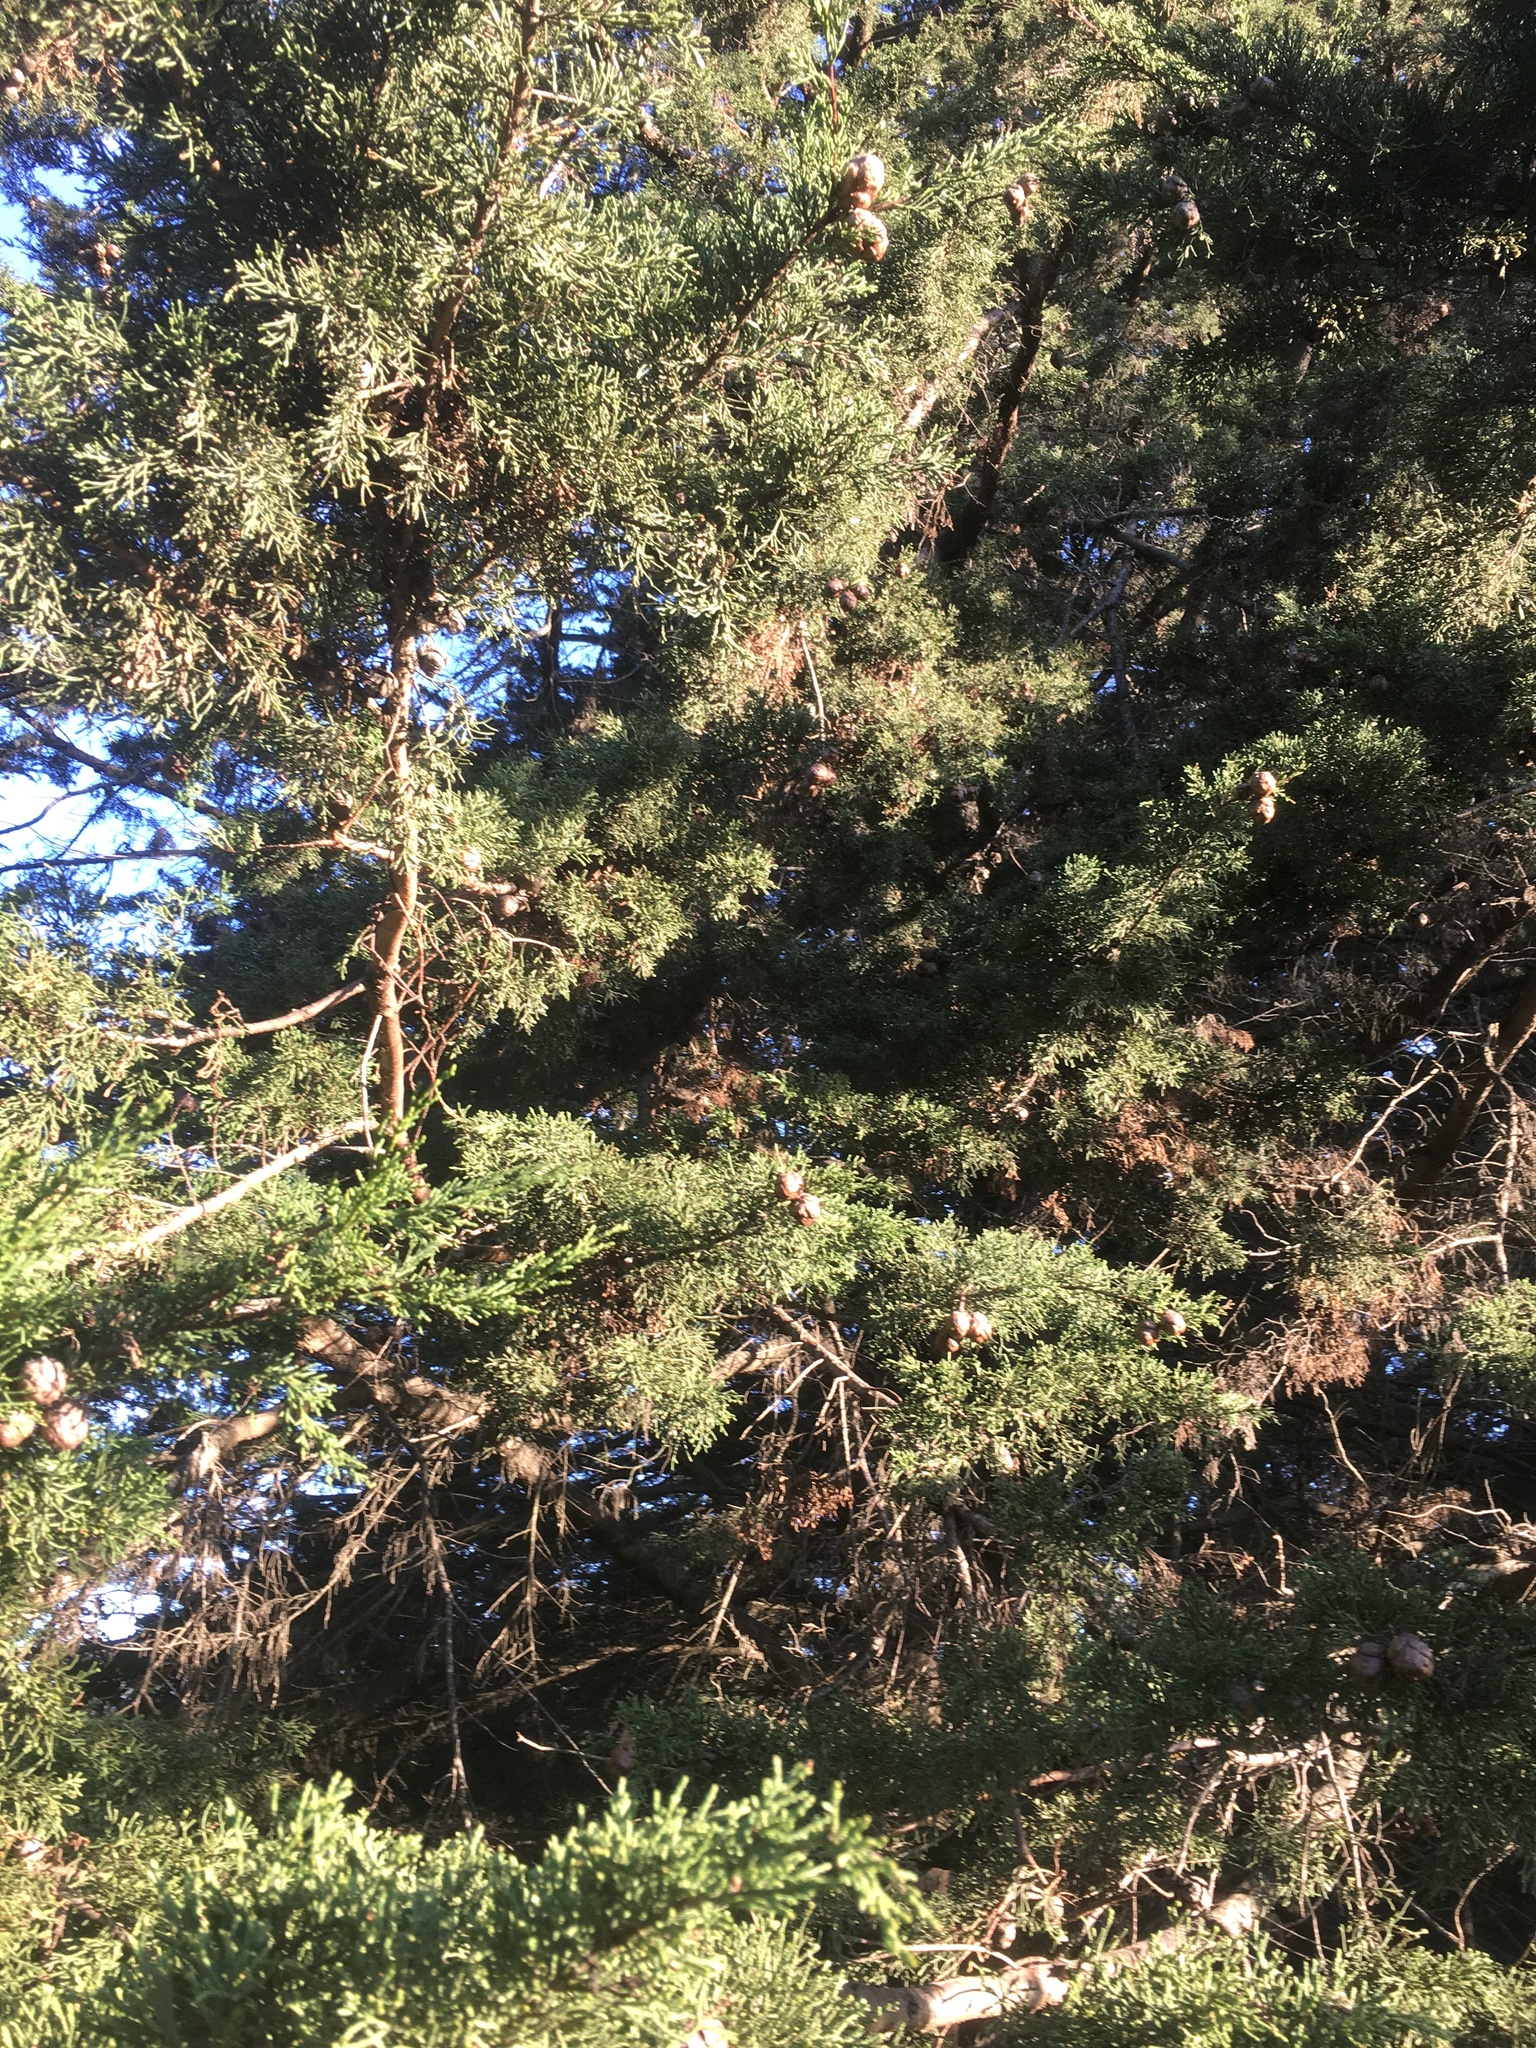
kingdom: Plantae
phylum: Tracheophyta
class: Pinopsida
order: Pinales
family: Cupressaceae
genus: Cupressus
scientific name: Cupressus macrocarpa
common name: Monterey cypress
